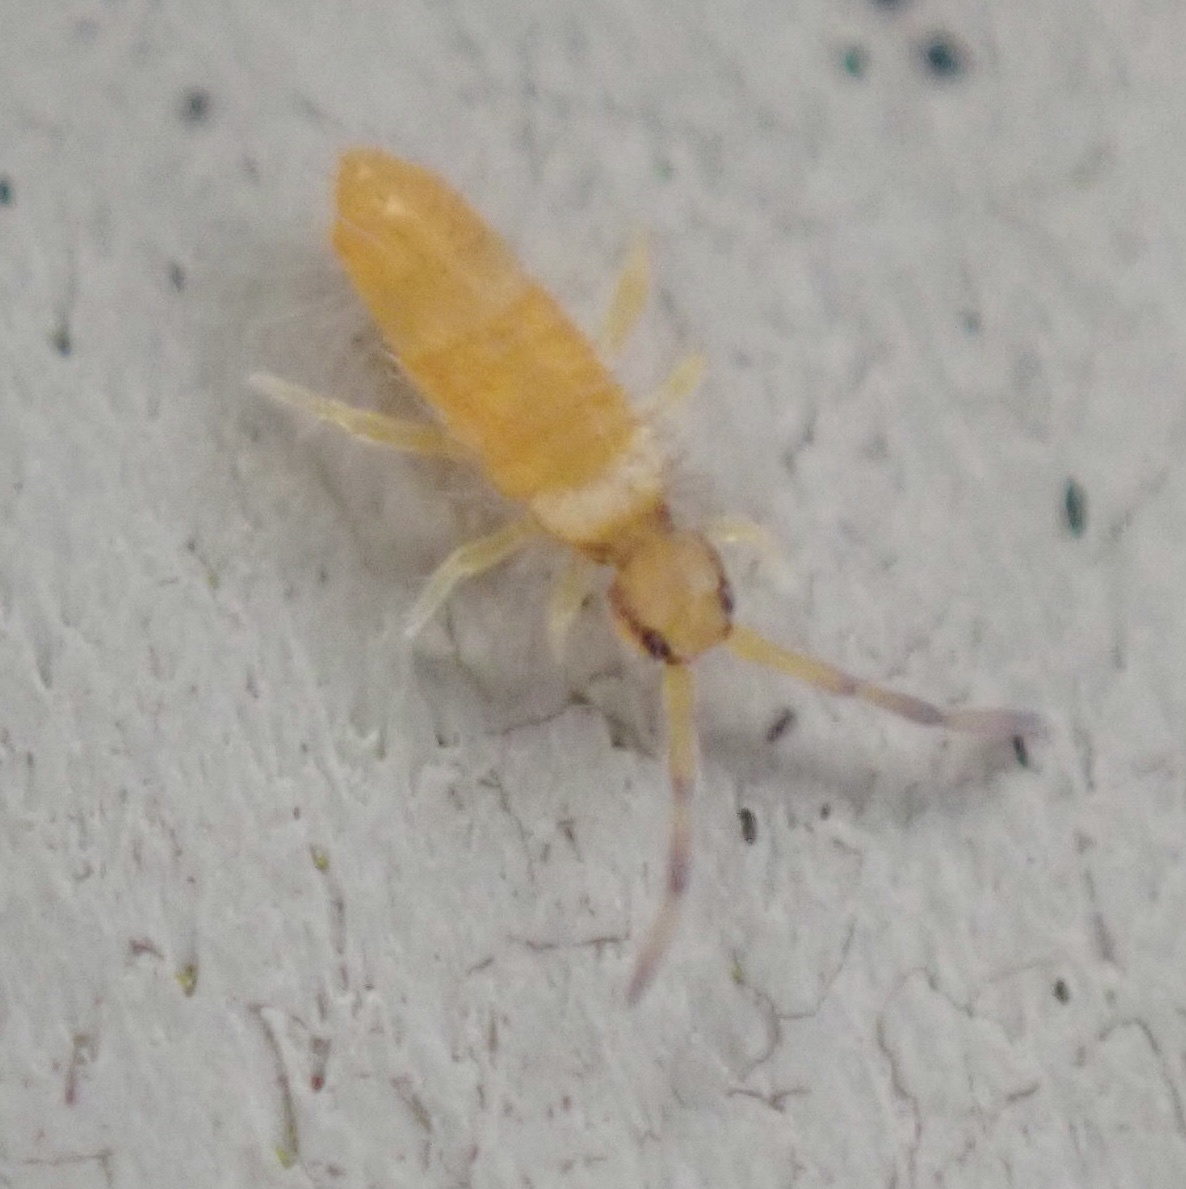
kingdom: Animalia
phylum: Arthropoda
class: Collembola
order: Entomobryomorpha
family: Entomobryidae
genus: Entomobrya
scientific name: Entomobrya atrocincta
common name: Springtail
